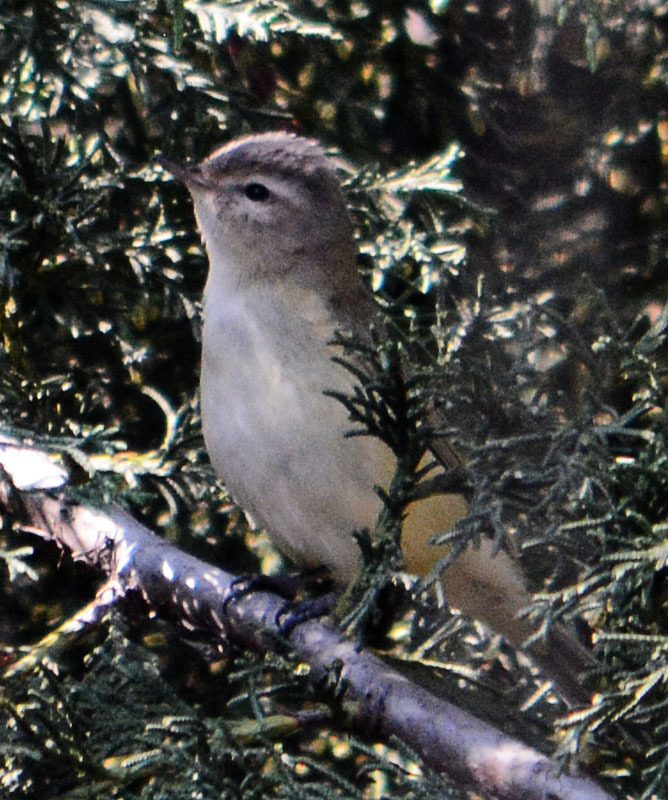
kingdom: Animalia
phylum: Chordata
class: Aves
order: Passeriformes
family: Vireonidae
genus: Vireo
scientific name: Vireo gilvus
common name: Warbling vireo
